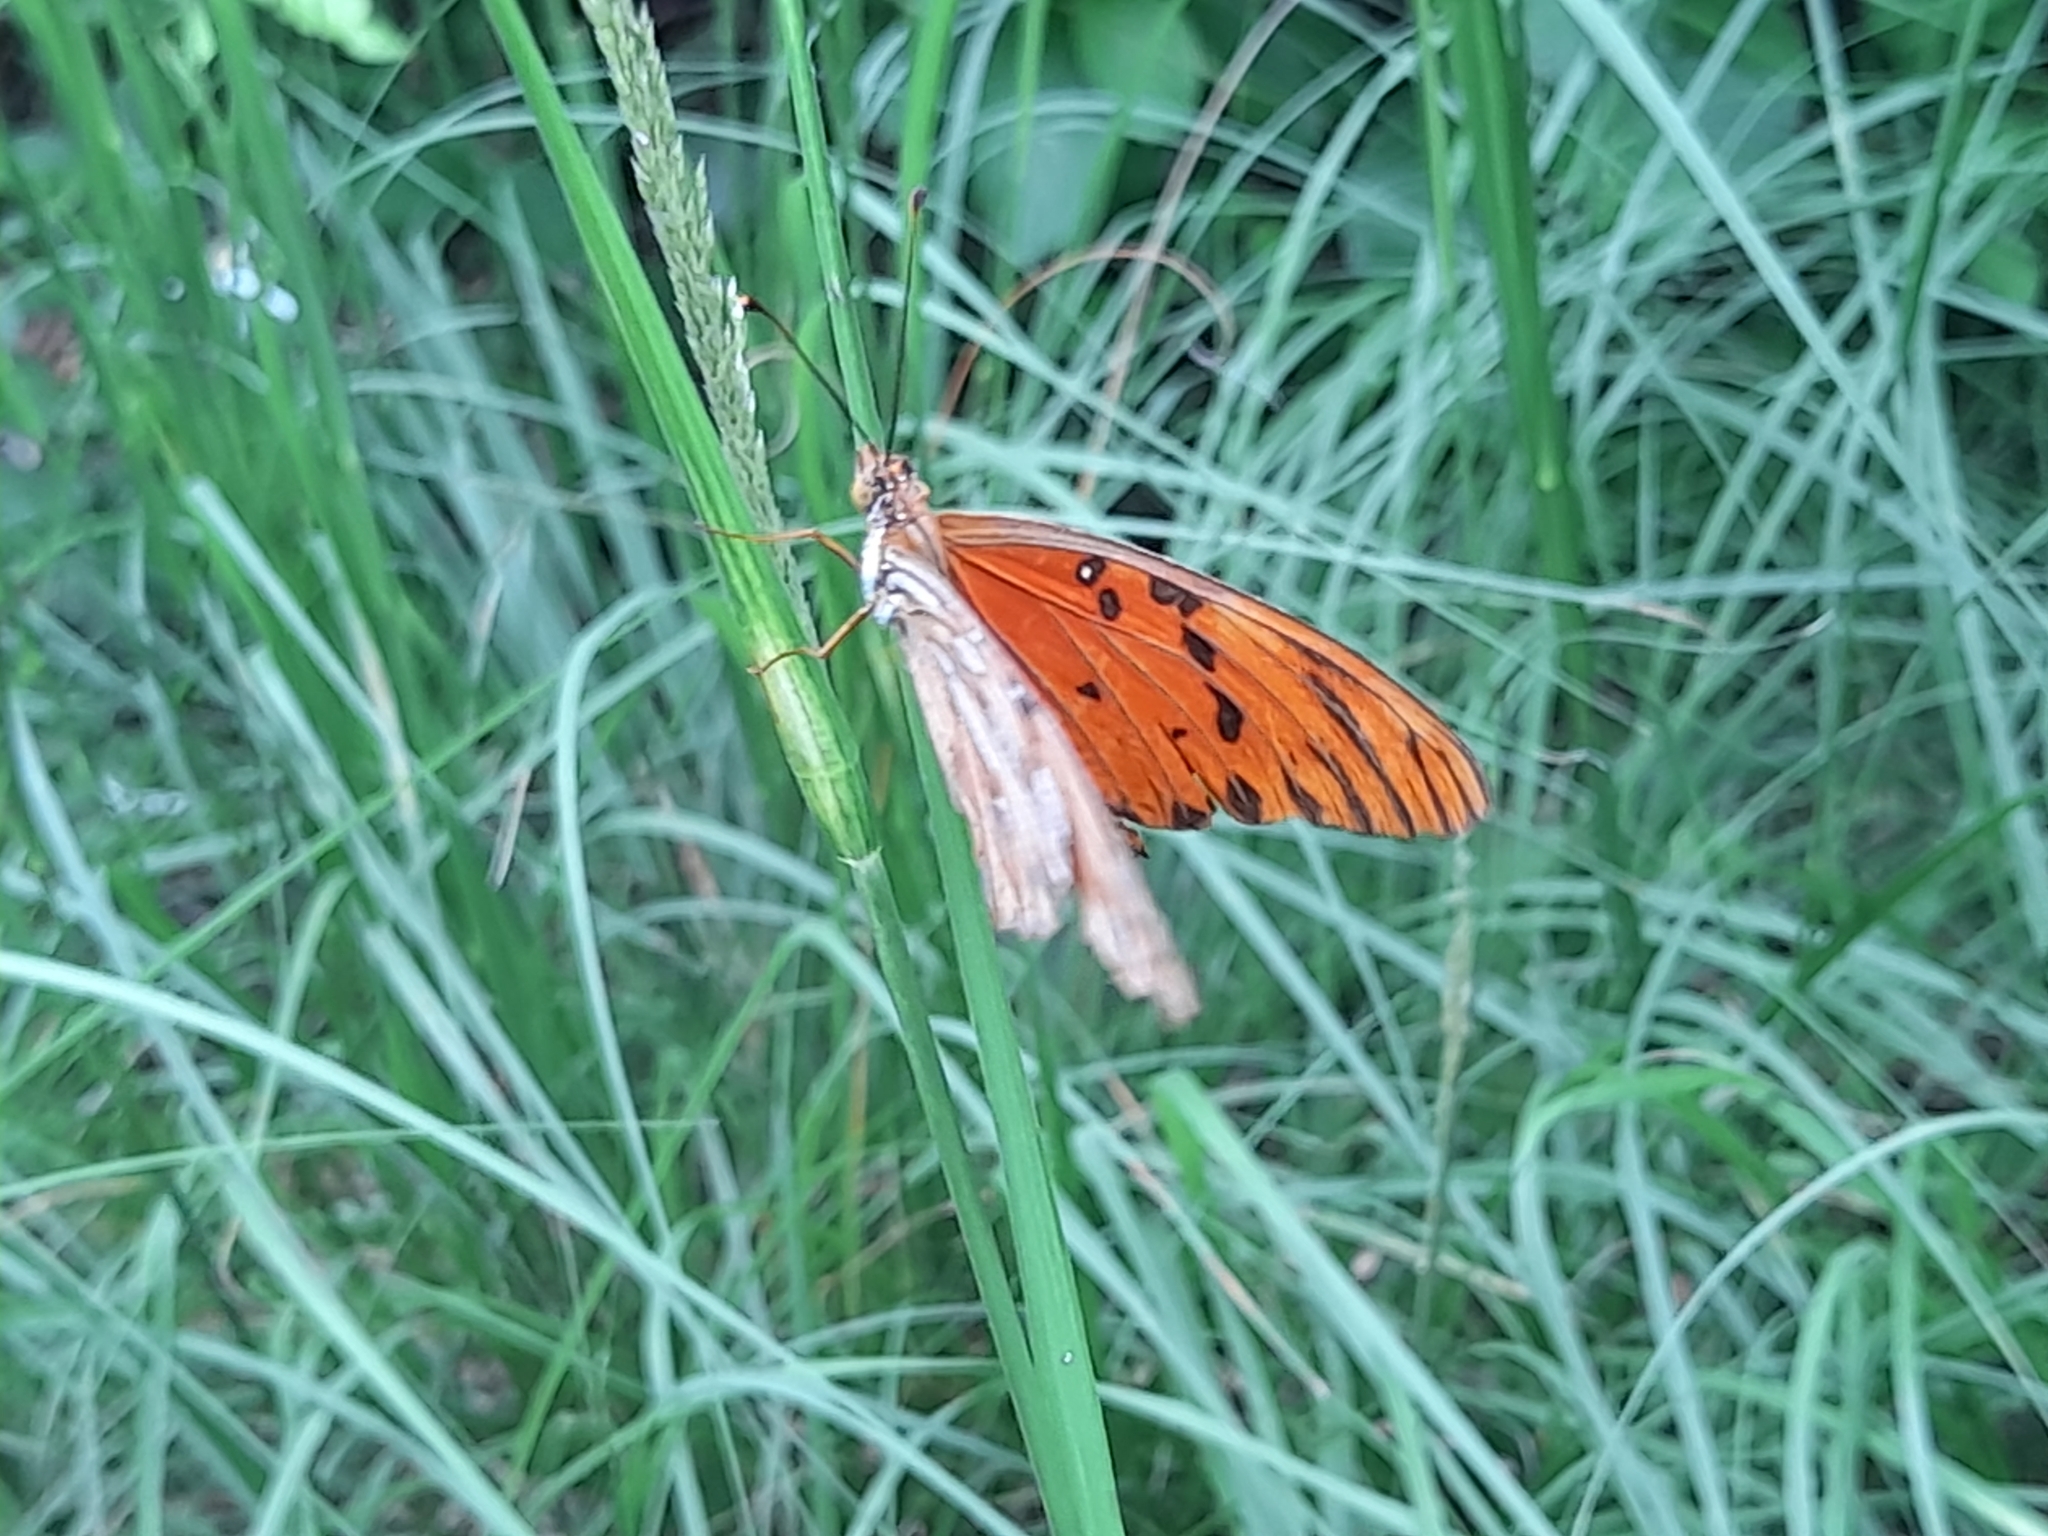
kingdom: Animalia
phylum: Arthropoda
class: Insecta
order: Lepidoptera
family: Nymphalidae
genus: Dione
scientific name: Dione vanillae
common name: Gulf fritillary
